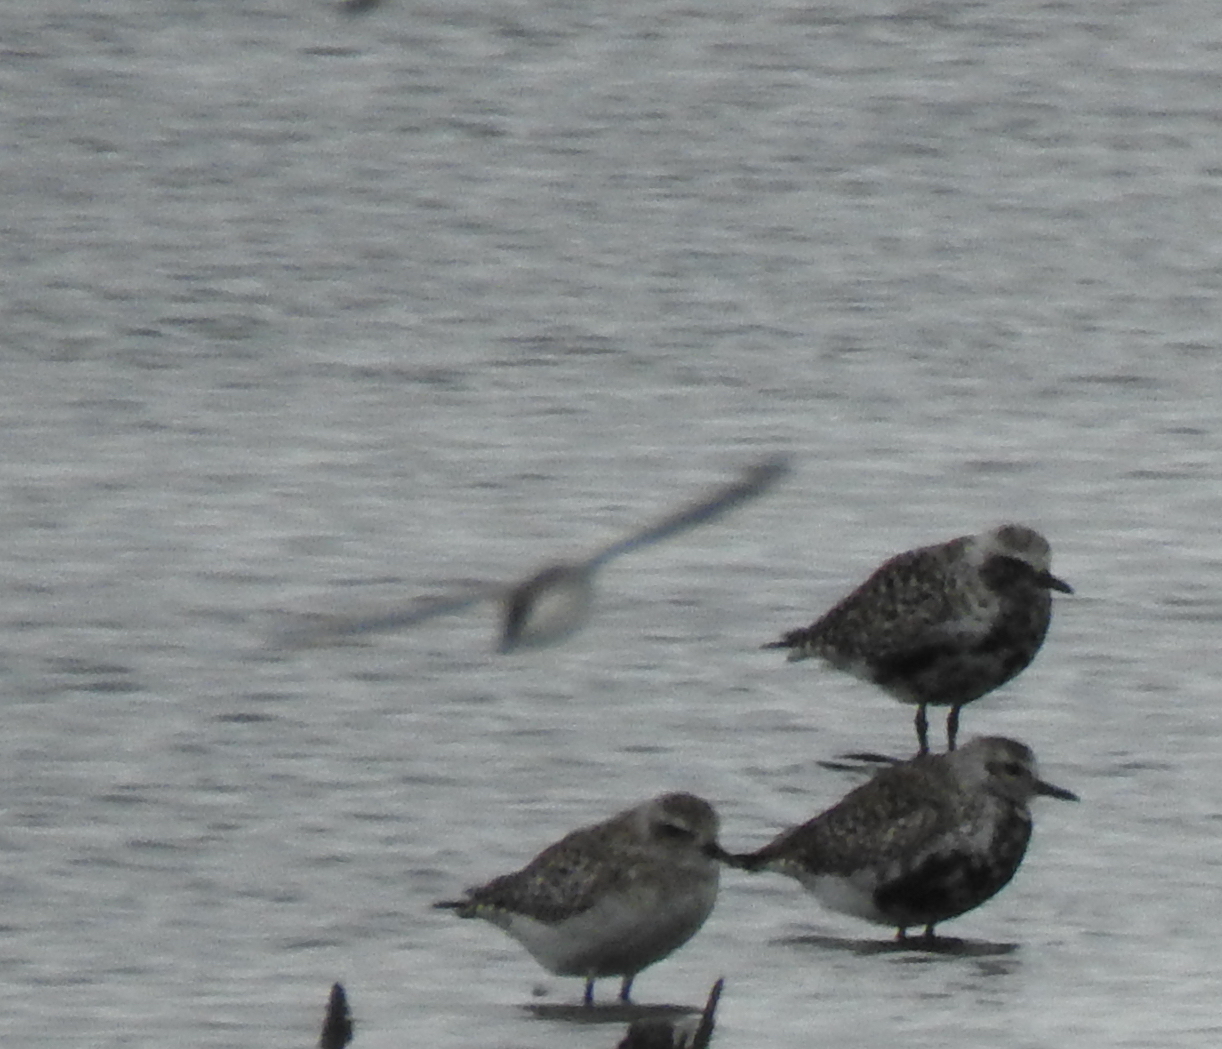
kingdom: Animalia
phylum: Chordata
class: Aves
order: Charadriiformes
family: Charadriidae
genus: Pluvialis
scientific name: Pluvialis squatarola
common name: Grey plover
